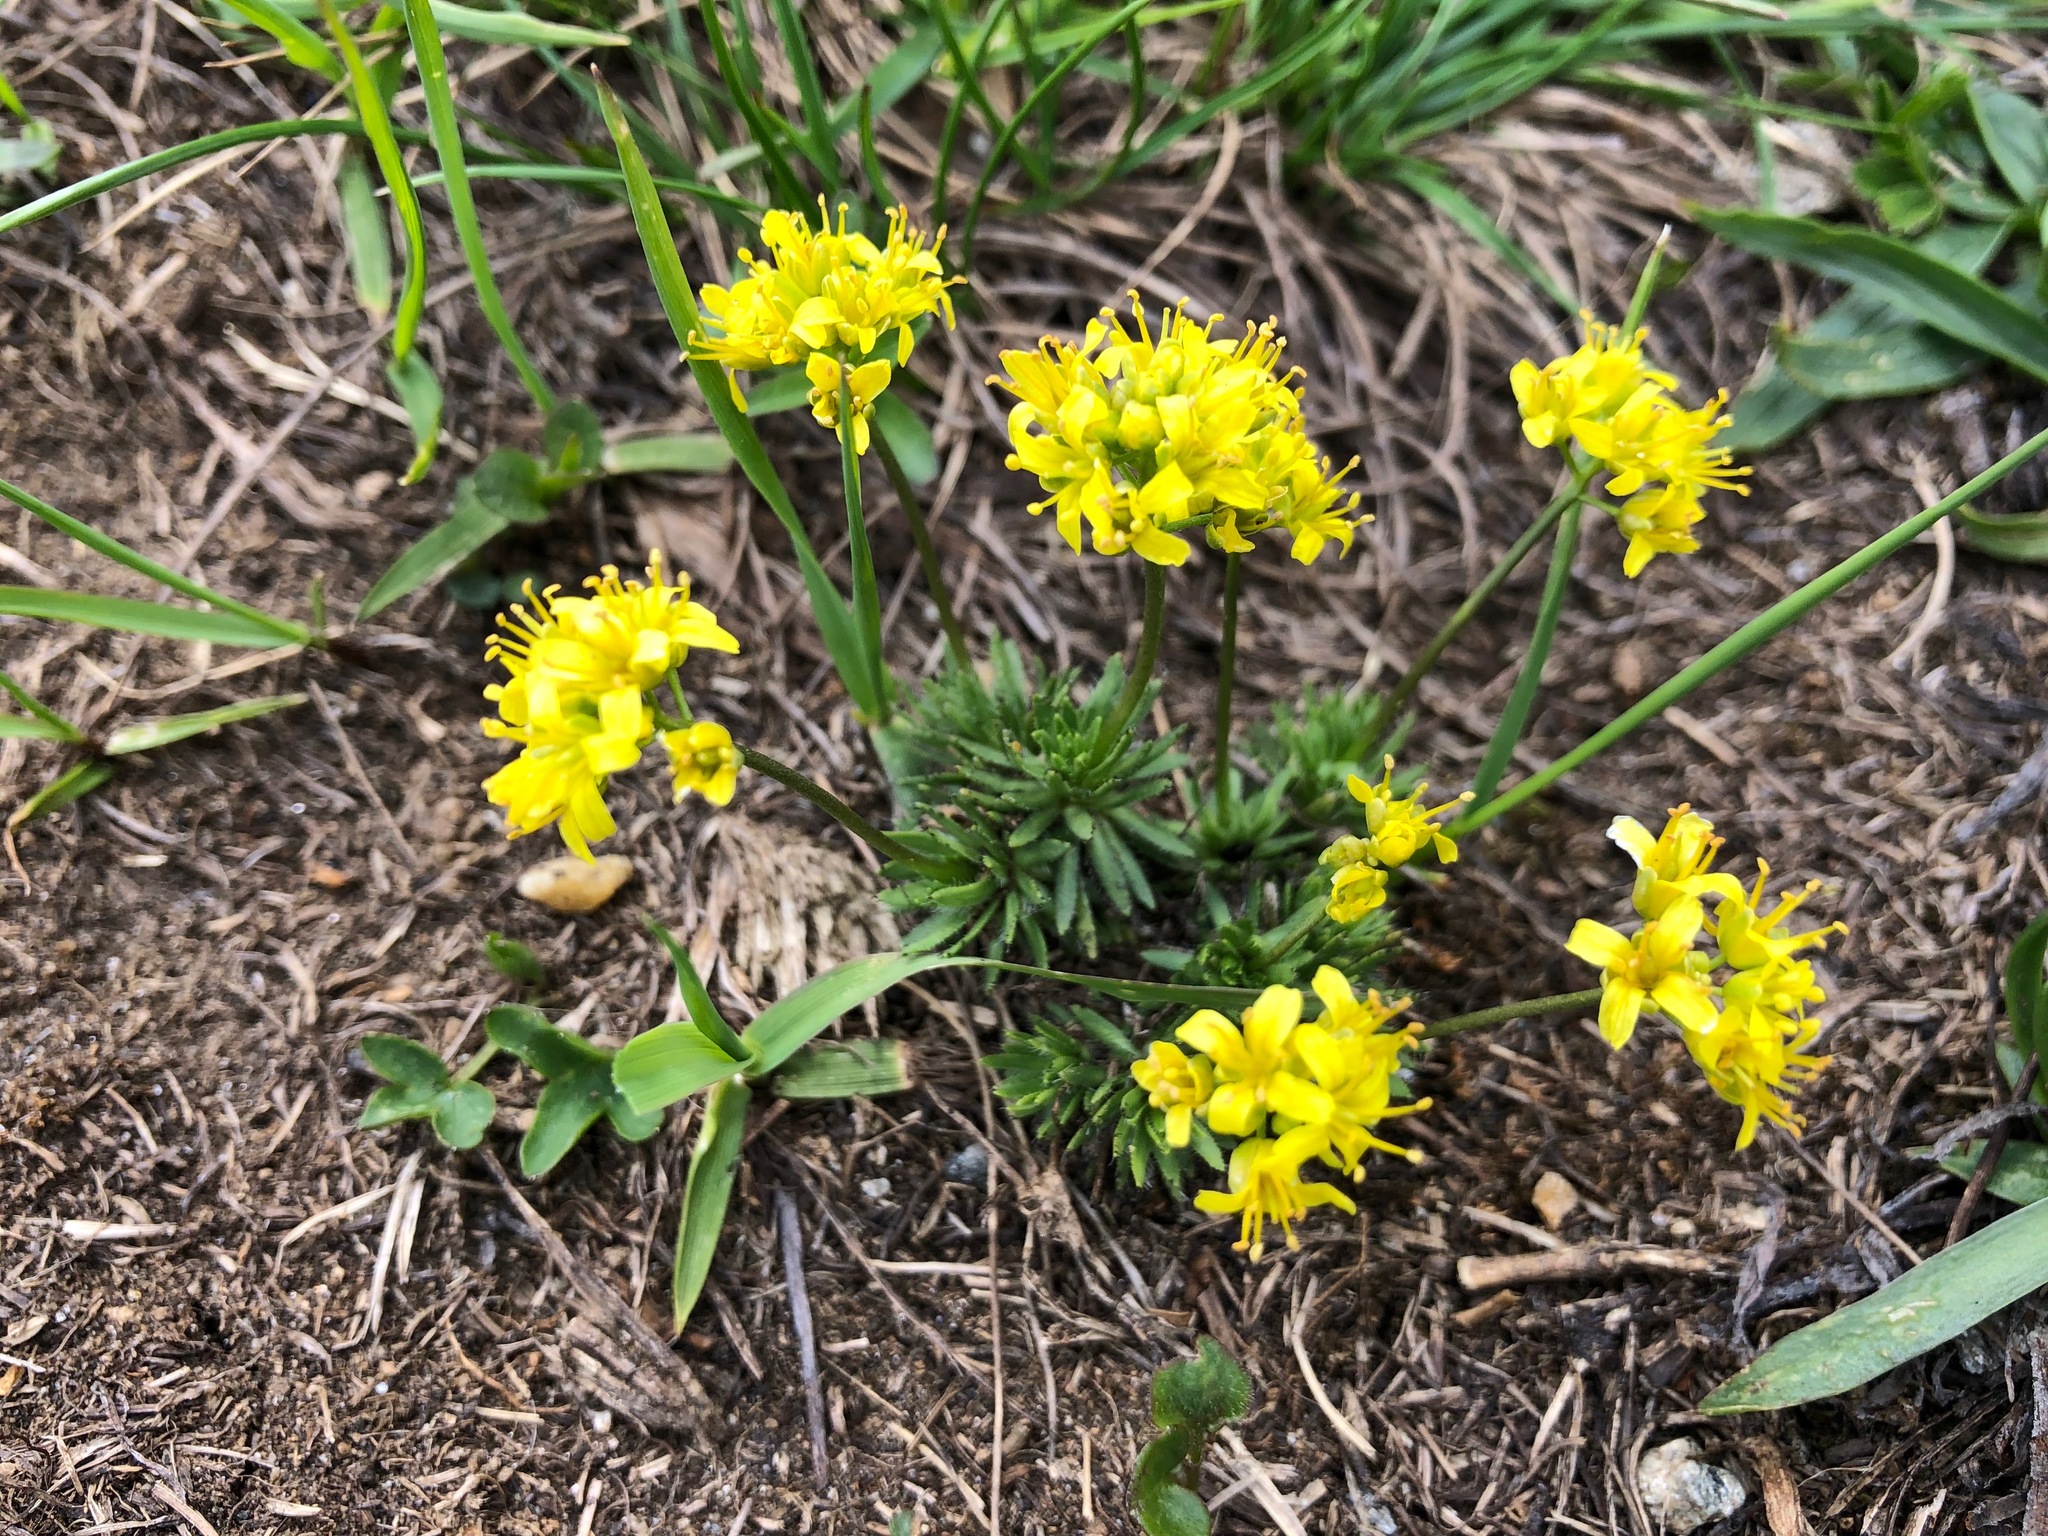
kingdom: Plantae
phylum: Tracheophyta
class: Magnoliopsida
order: Brassicales
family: Brassicaceae
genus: Draba
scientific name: Draba aizoides
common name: Yellow whitlowgrass
